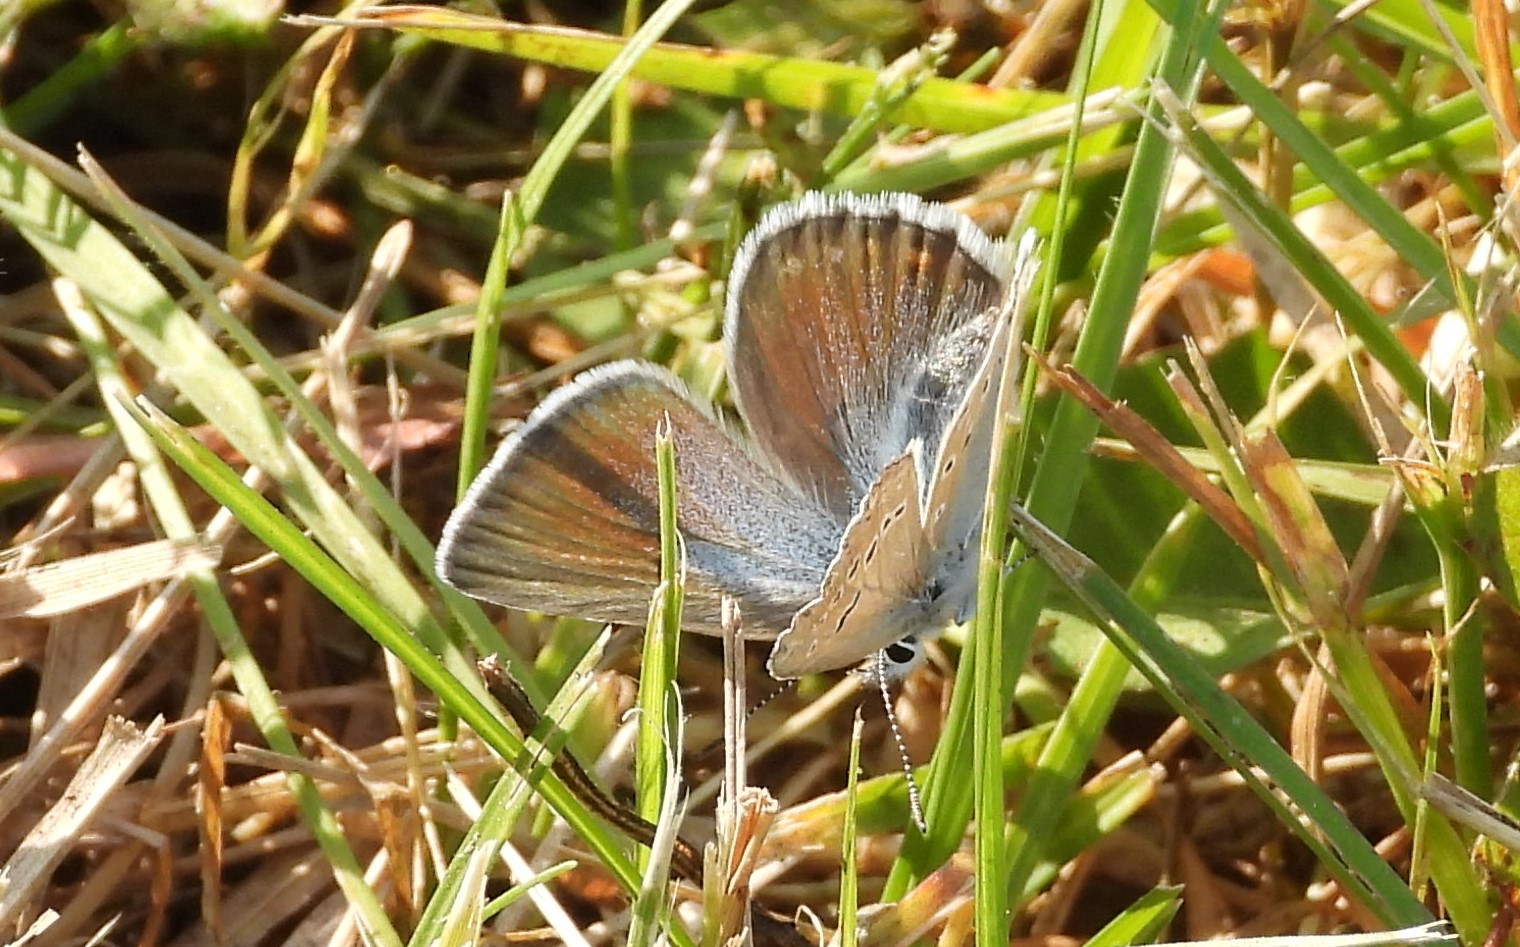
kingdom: Animalia
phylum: Arthropoda
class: Insecta
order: Lepidoptera
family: Lycaenidae
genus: Icaricia
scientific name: Icaricia saepiolus
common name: Greenish blue
